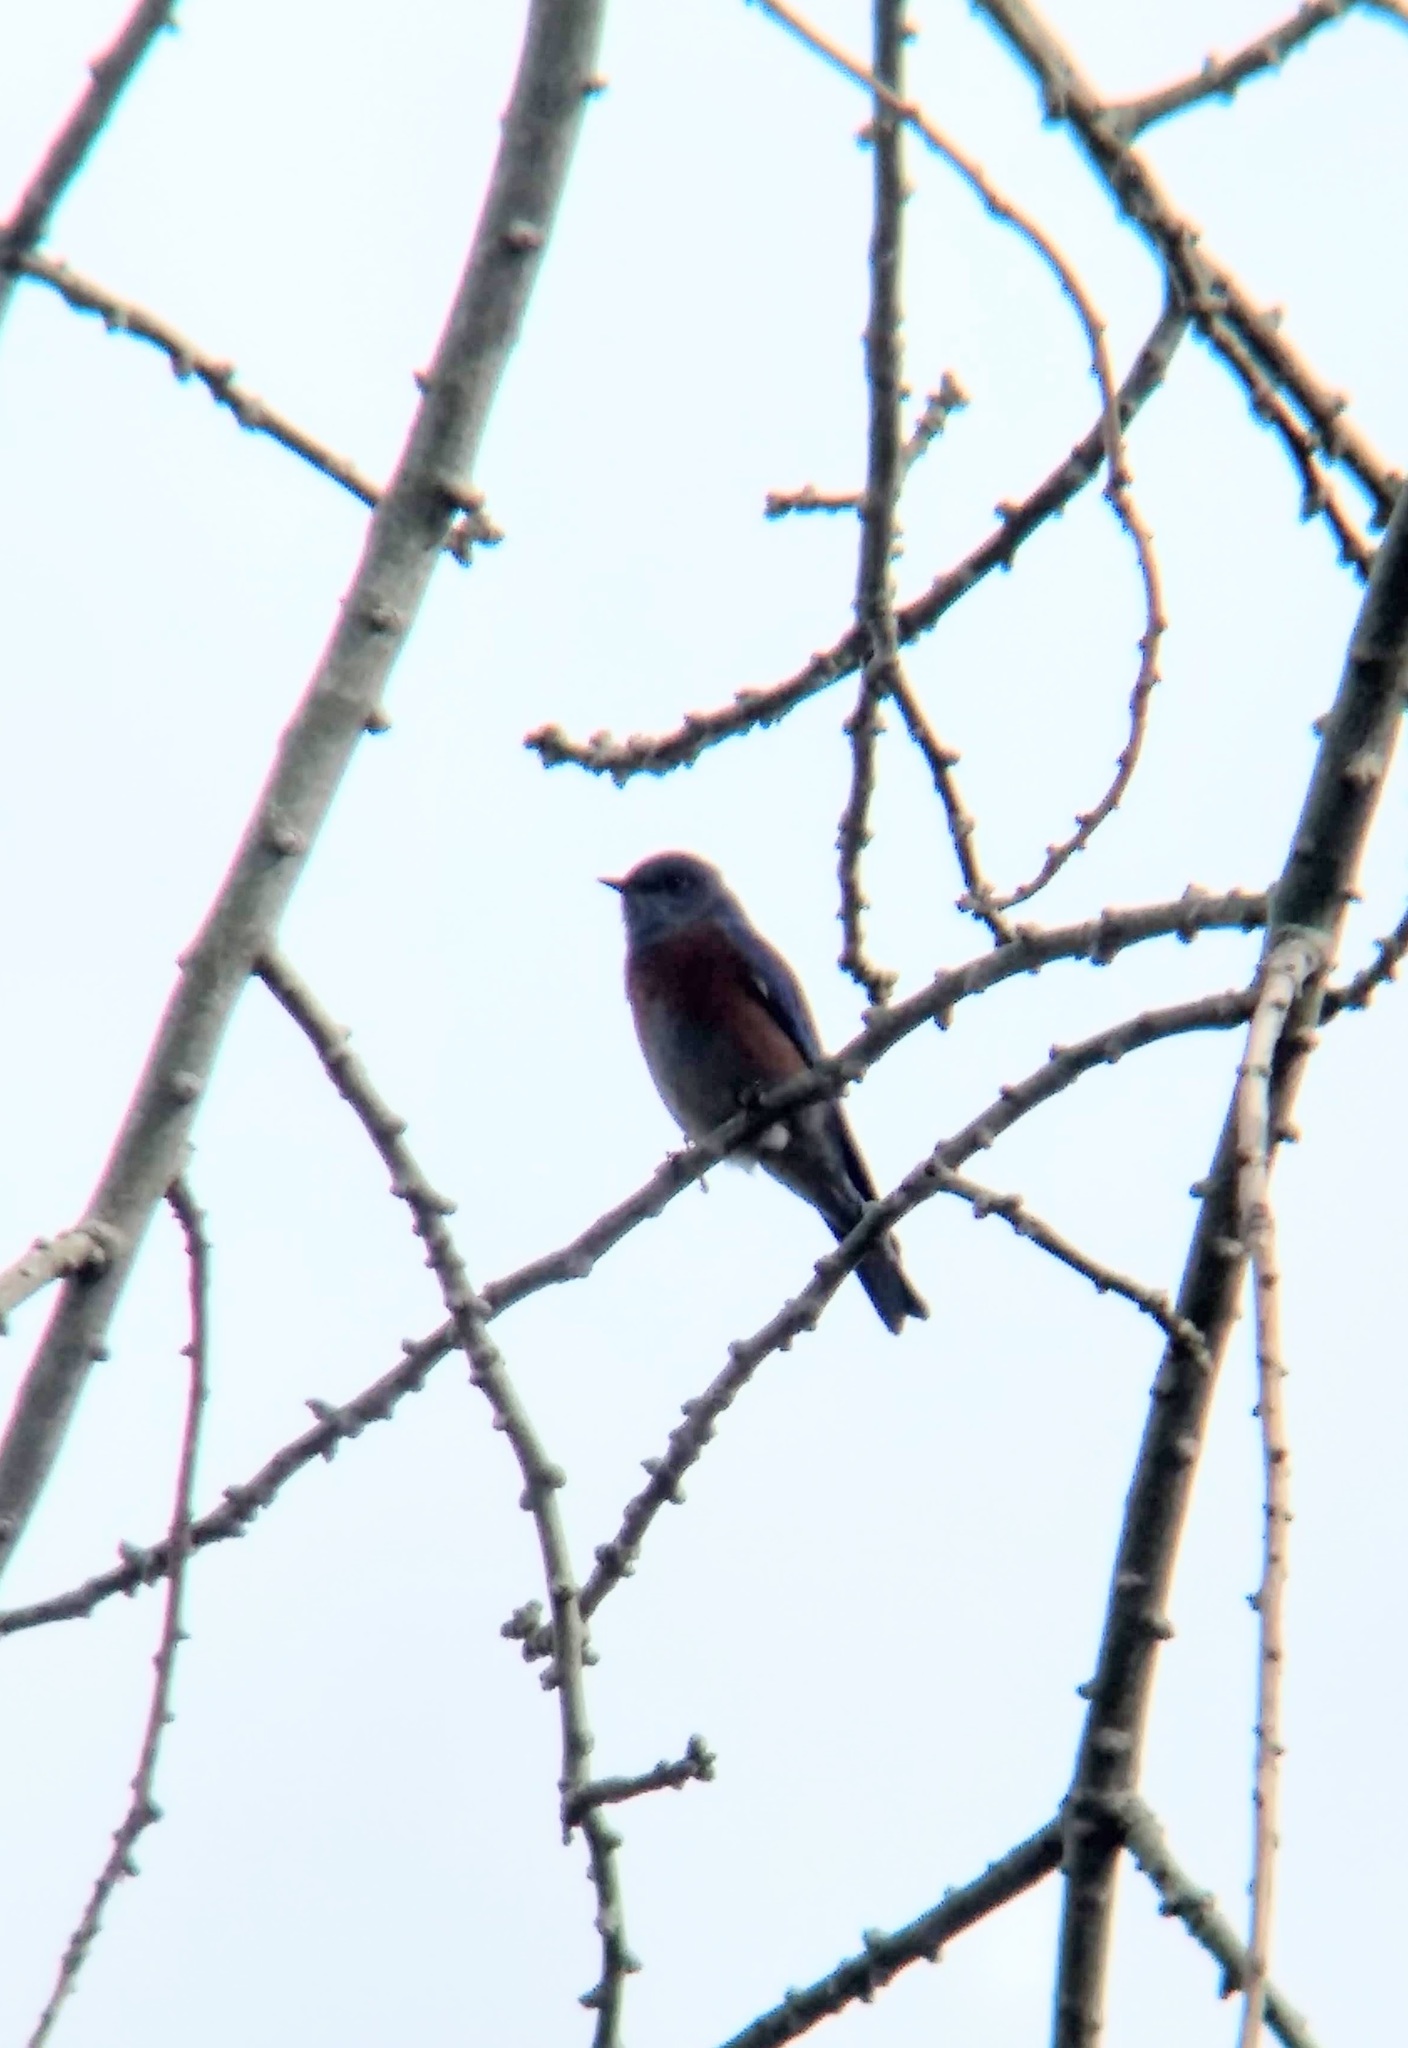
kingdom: Animalia
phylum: Chordata
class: Aves
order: Passeriformes
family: Turdidae
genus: Sialia
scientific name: Sialia mexicana
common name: Western bluebird
